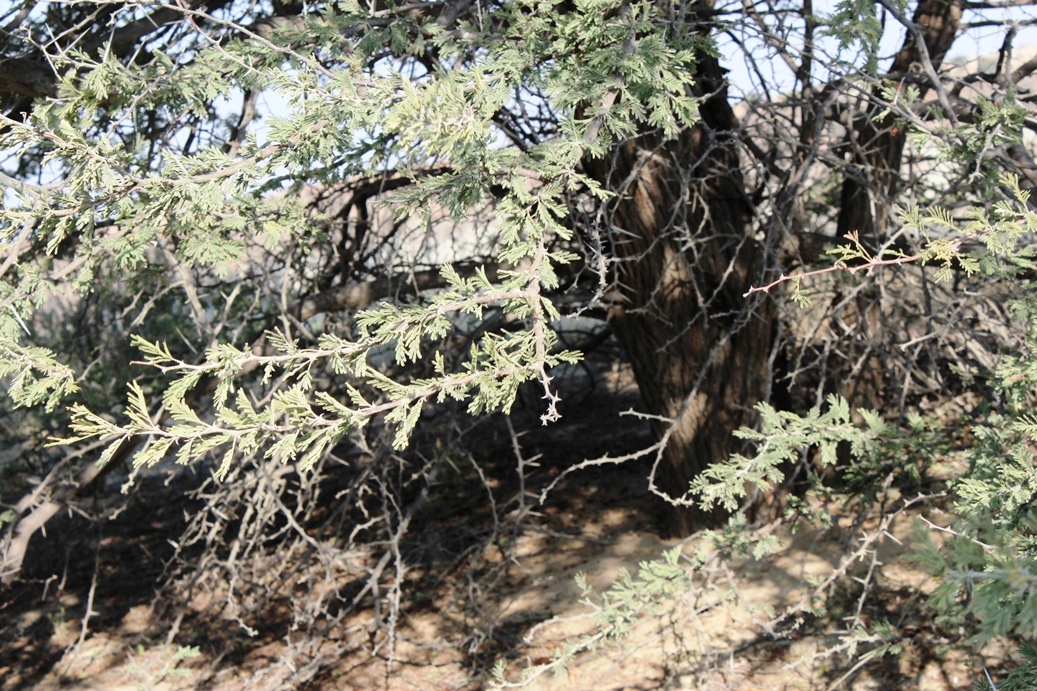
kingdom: Plantae
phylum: Tracheophyta
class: Magnoliopsida
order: Fabales
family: Fabaceae
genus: Vachellia
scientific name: Vachellia luederitzii
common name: Bastard umbrella thorn
